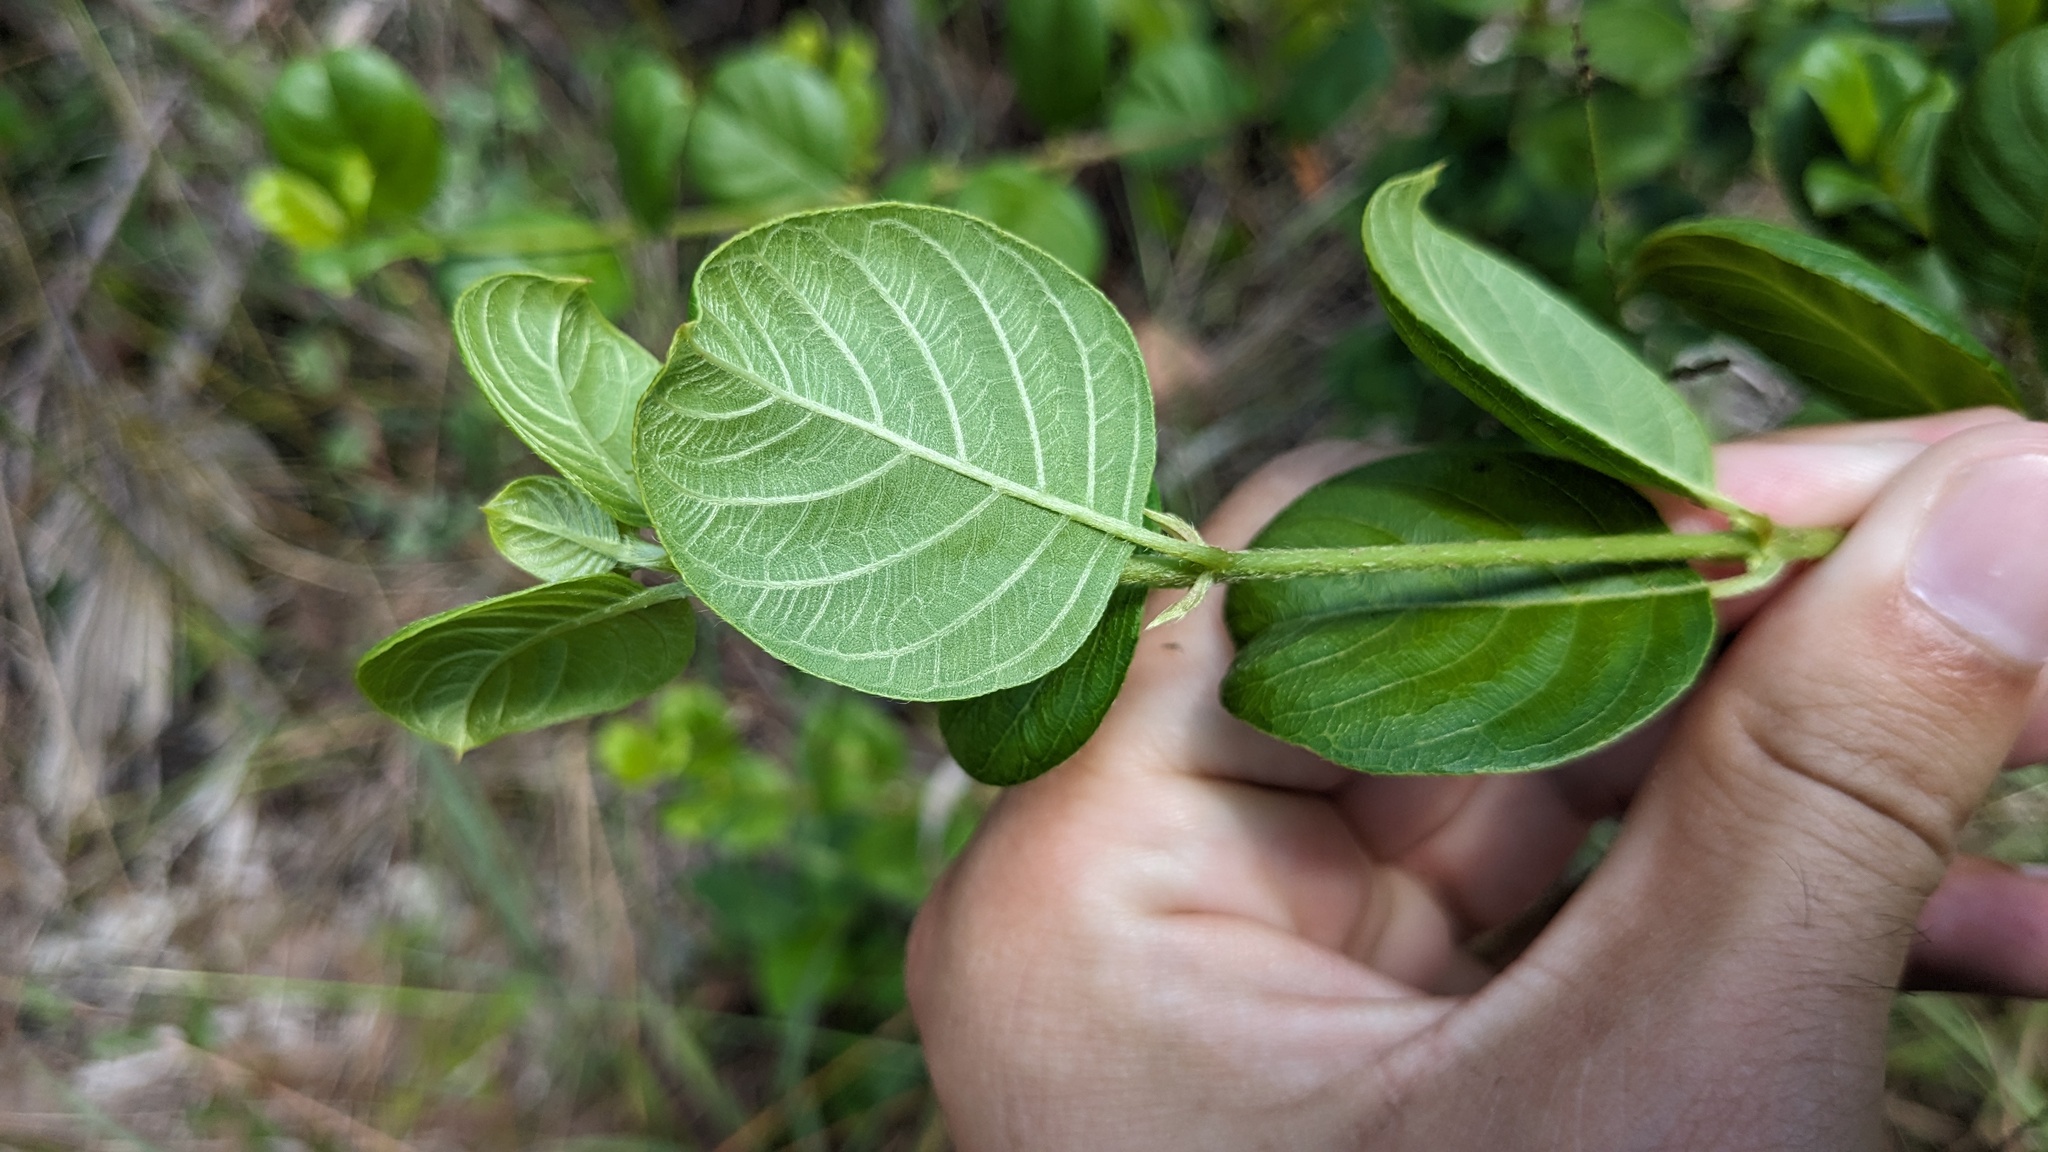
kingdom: Plantae
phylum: Tracheophyta
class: Magnoliopsida
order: Gentianales
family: Rubiaceae
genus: Guettarda
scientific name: Guettarda scabra
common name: Pigeon bay
